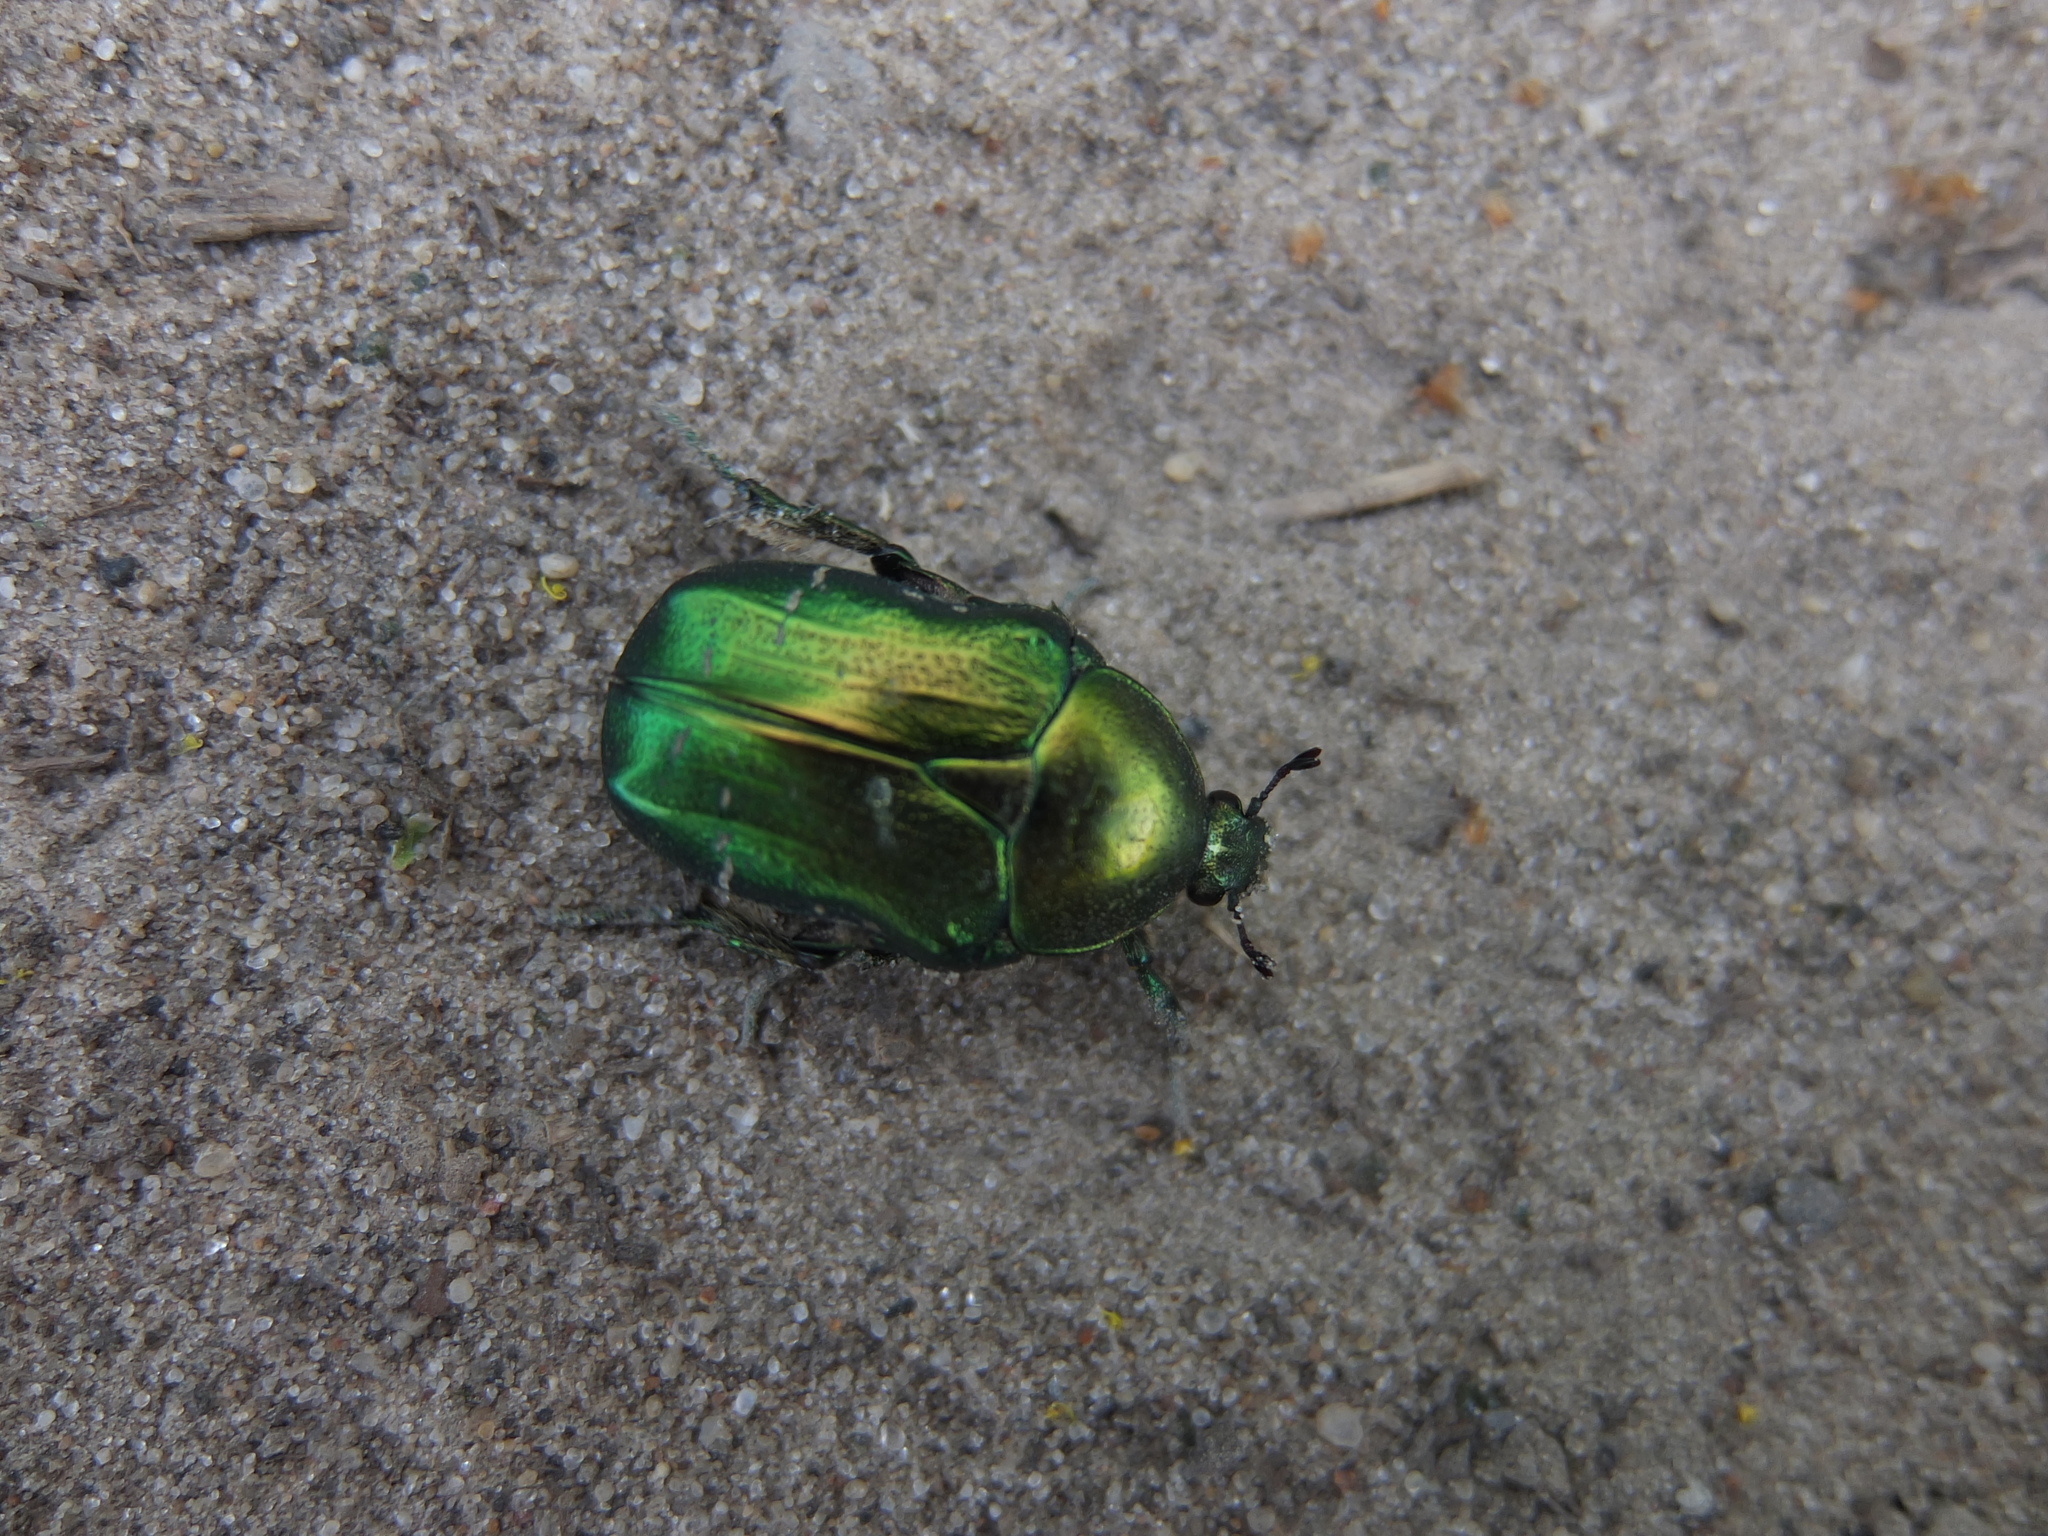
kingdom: Animalia
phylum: Arthropoda
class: Insecta
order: Coleoptera
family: Scarabaeidae
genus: Cetonia
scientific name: Cetonia aurata
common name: Rose chafer
